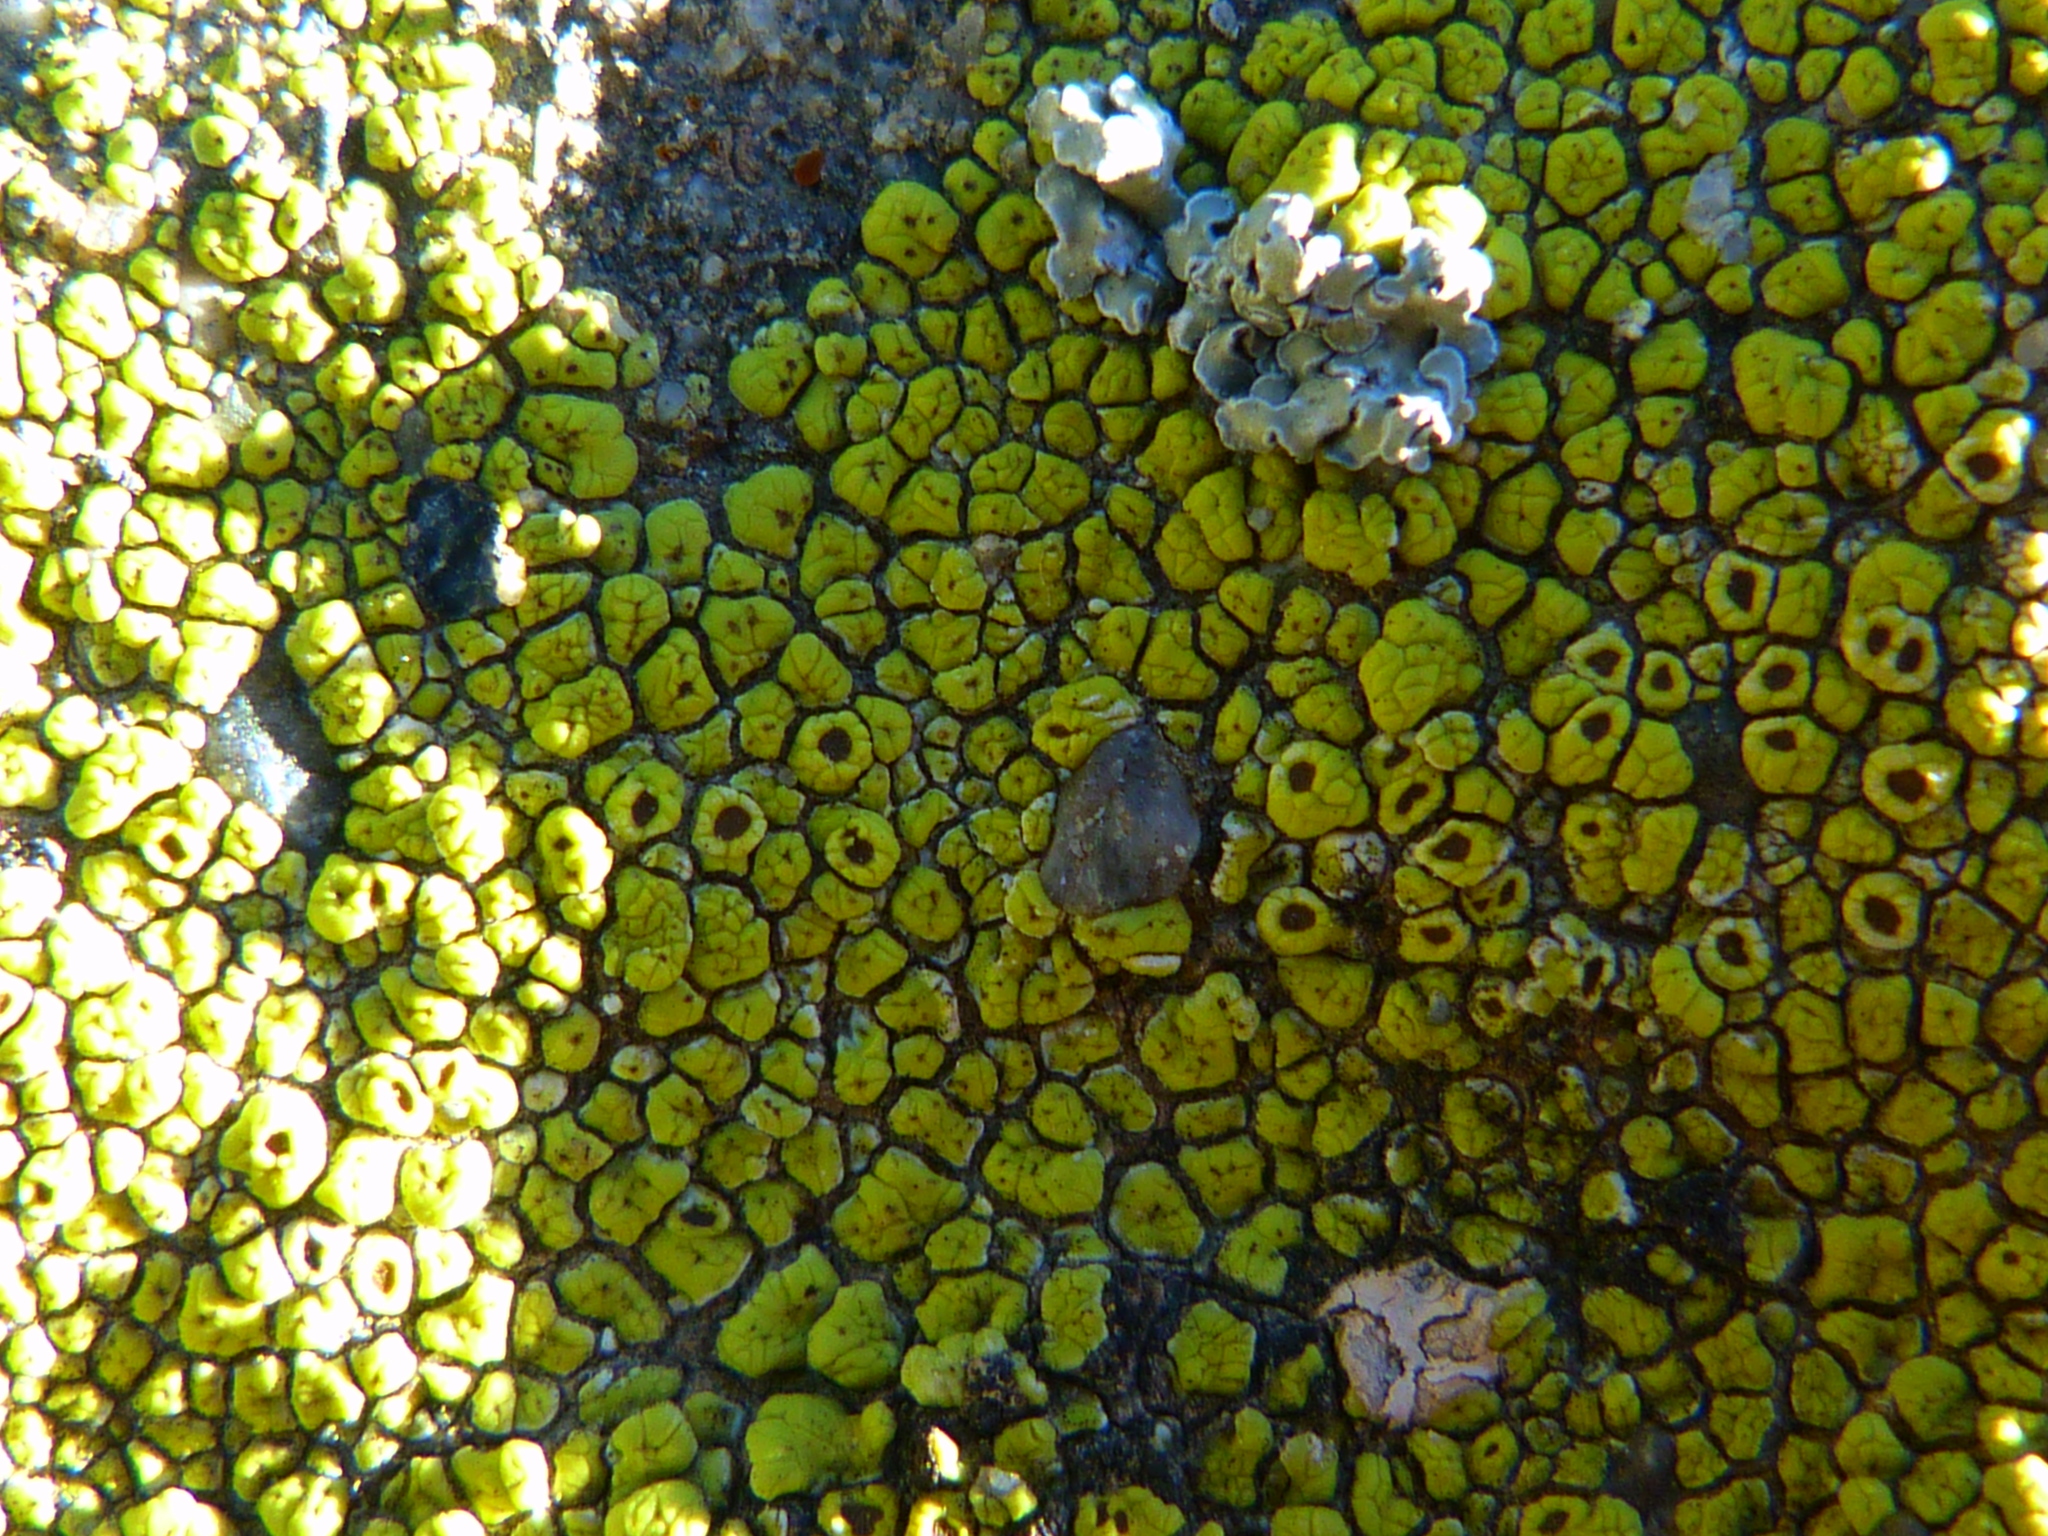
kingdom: Fungi
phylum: Ascomycota
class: Lecanoromycetes
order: Acarosporales
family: Acarosporaceae
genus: Acarospora
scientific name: Acarospora socialis
